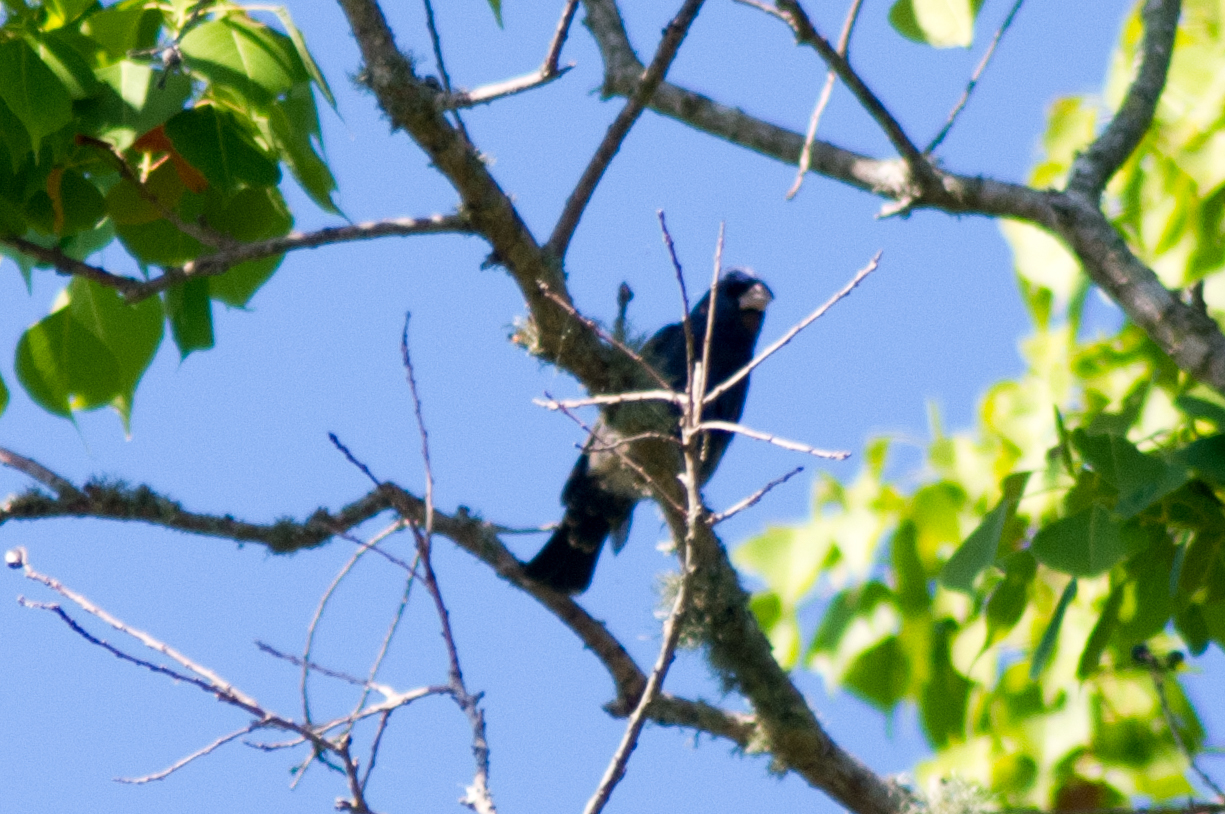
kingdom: Animalia
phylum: Chordata
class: Aves
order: Passeriformes
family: Cardinalidae
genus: Passerina
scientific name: Passerina caerulea
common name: Blue grosbeak
